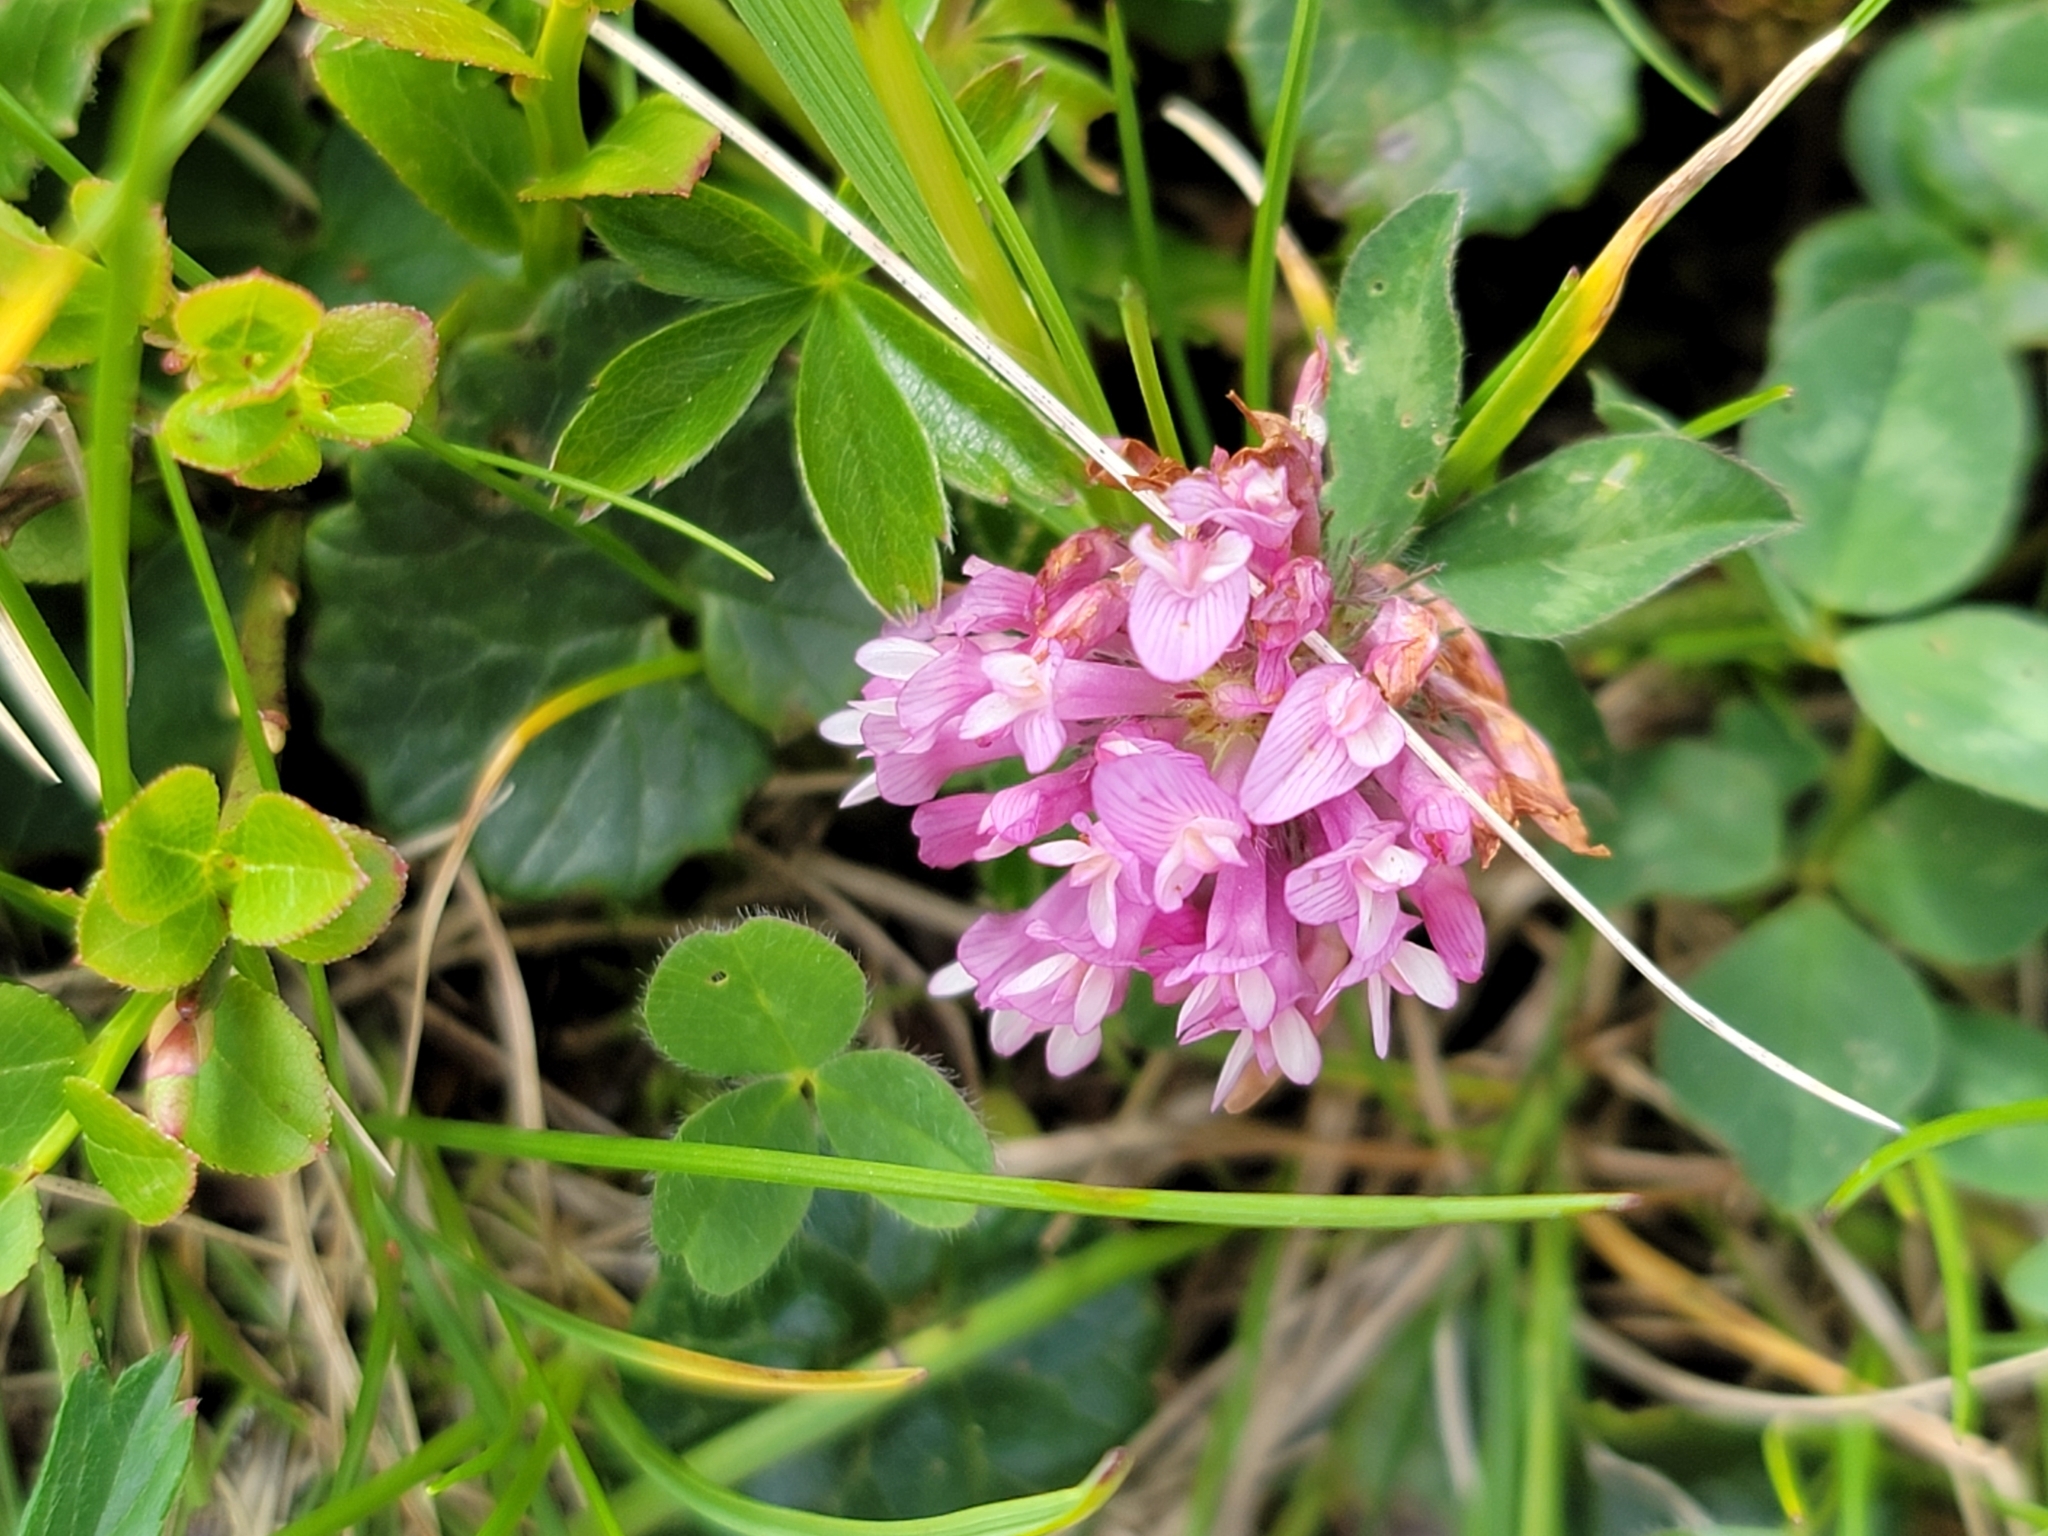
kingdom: Plantae
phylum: Tracheophyta
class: Magnoliopsida
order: Fabales
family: Fabaceae
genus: Trifolium
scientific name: Trifolium pratense
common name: Red clover
